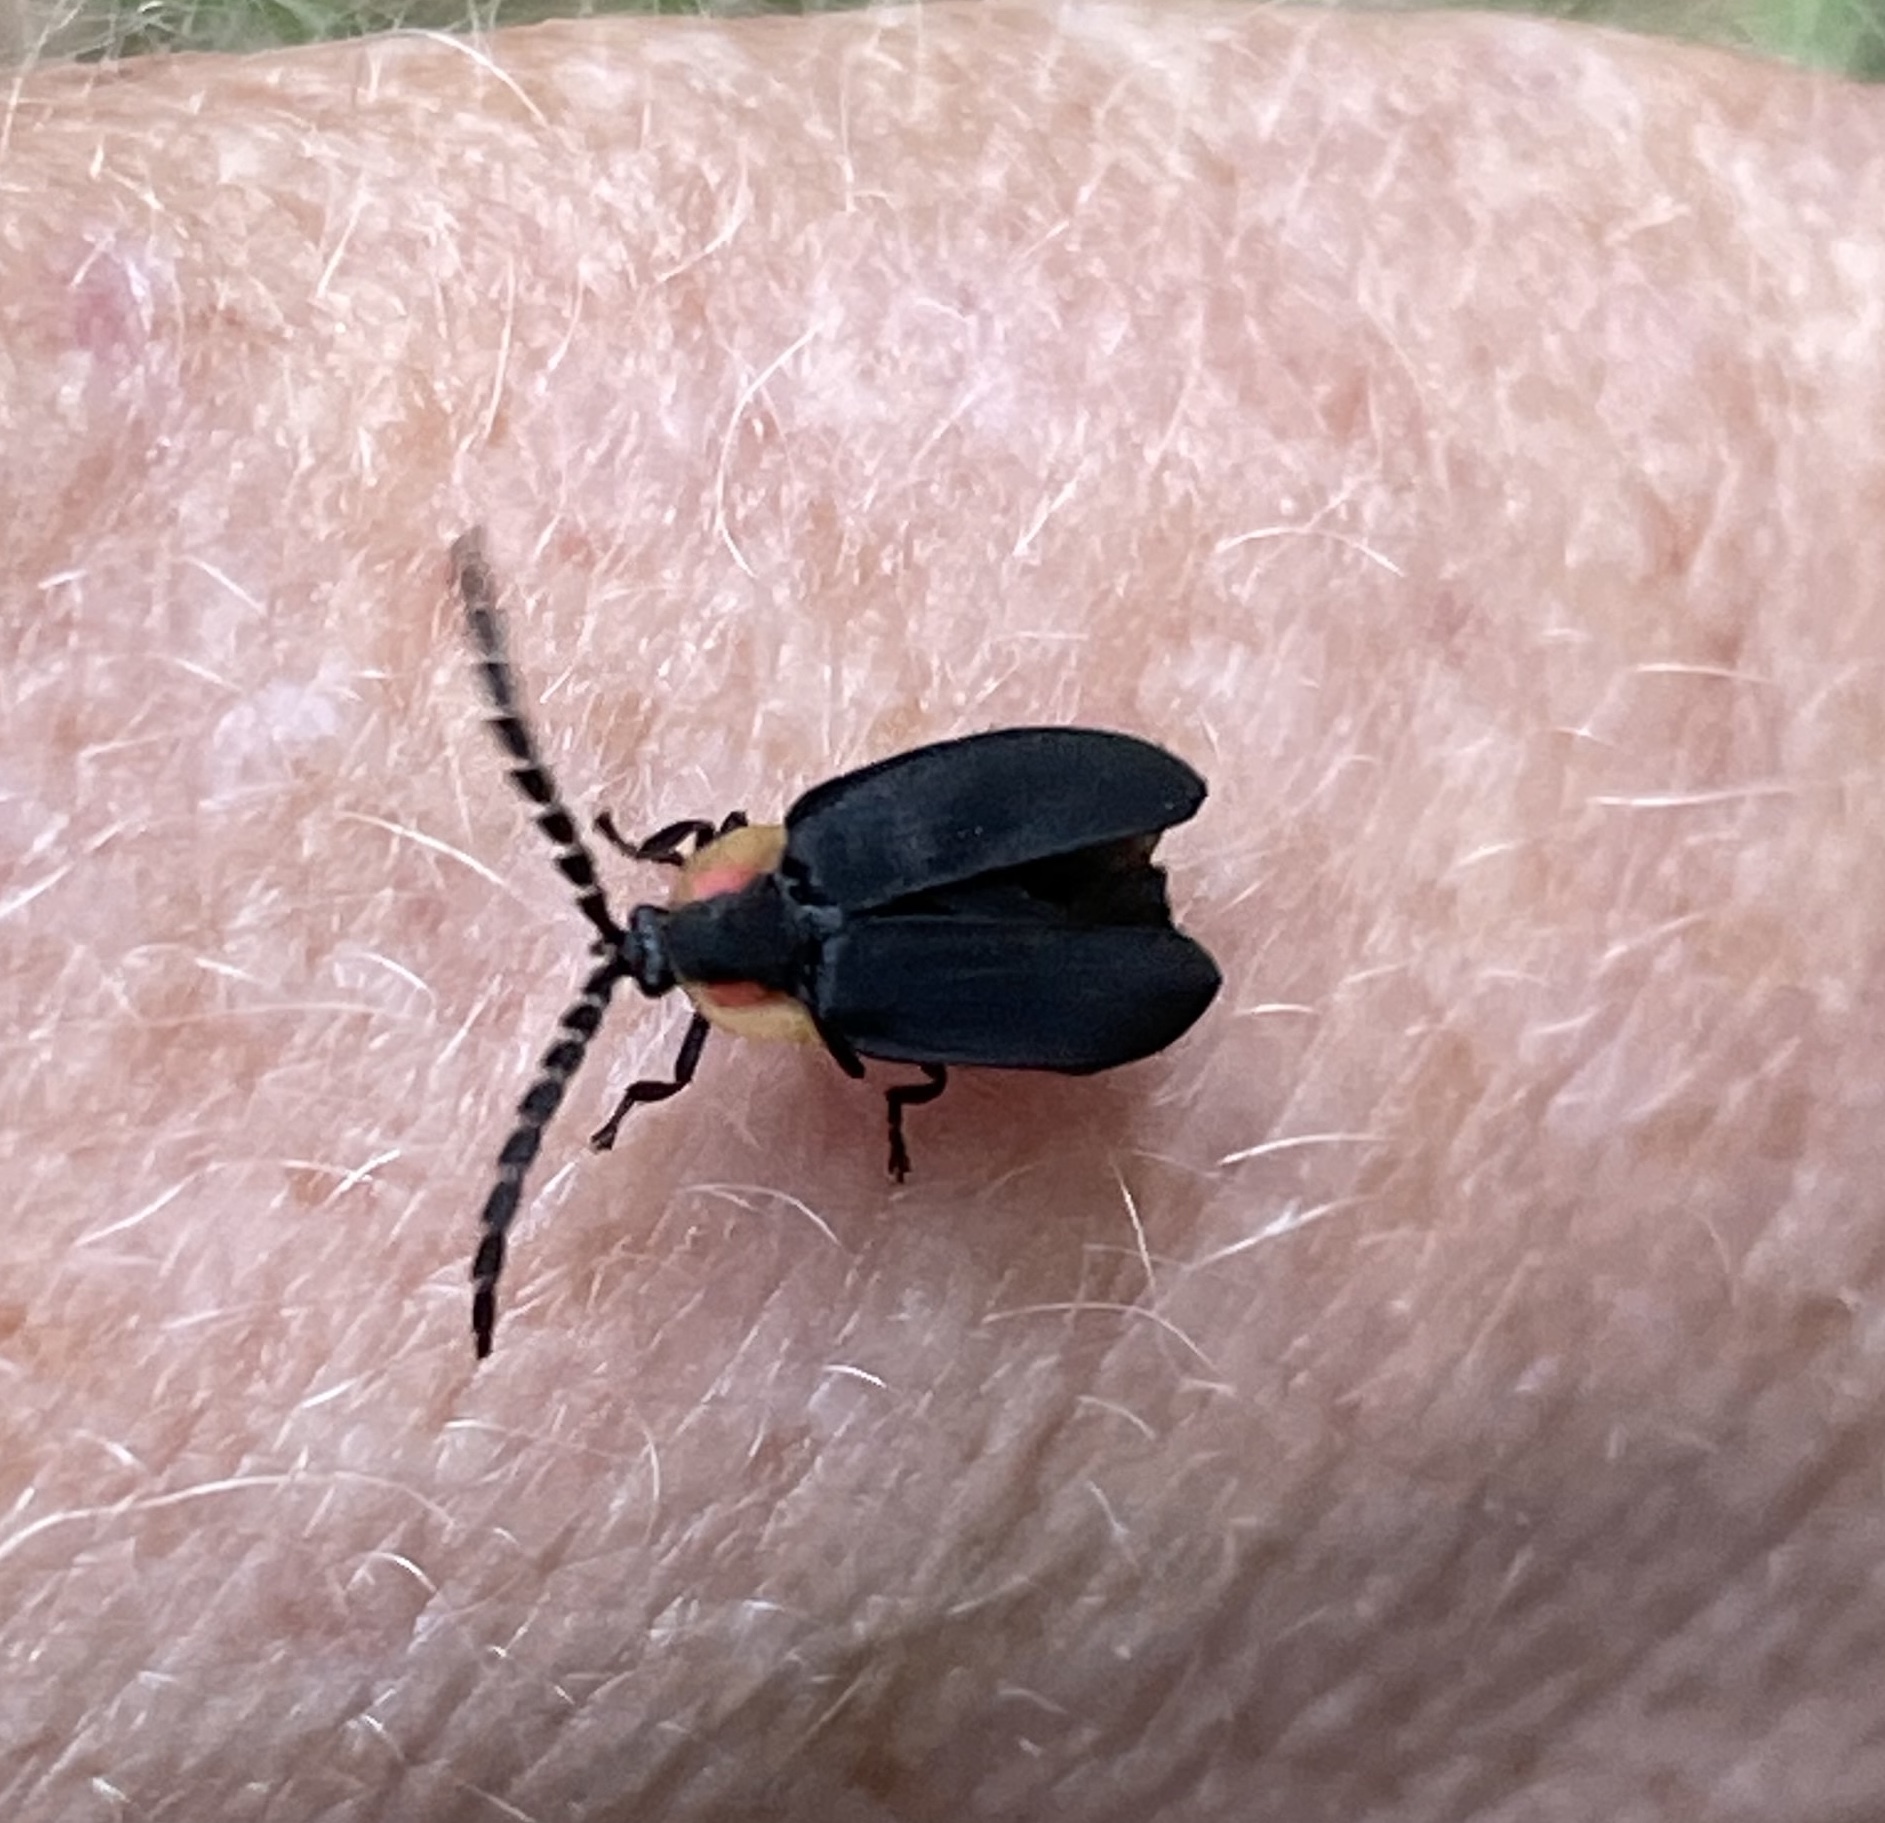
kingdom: Animalia
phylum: Arthropoda
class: Insecta
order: Coleoptera
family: Lampyridae
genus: Lucidota
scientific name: Lucidota atra
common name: Black firefly
